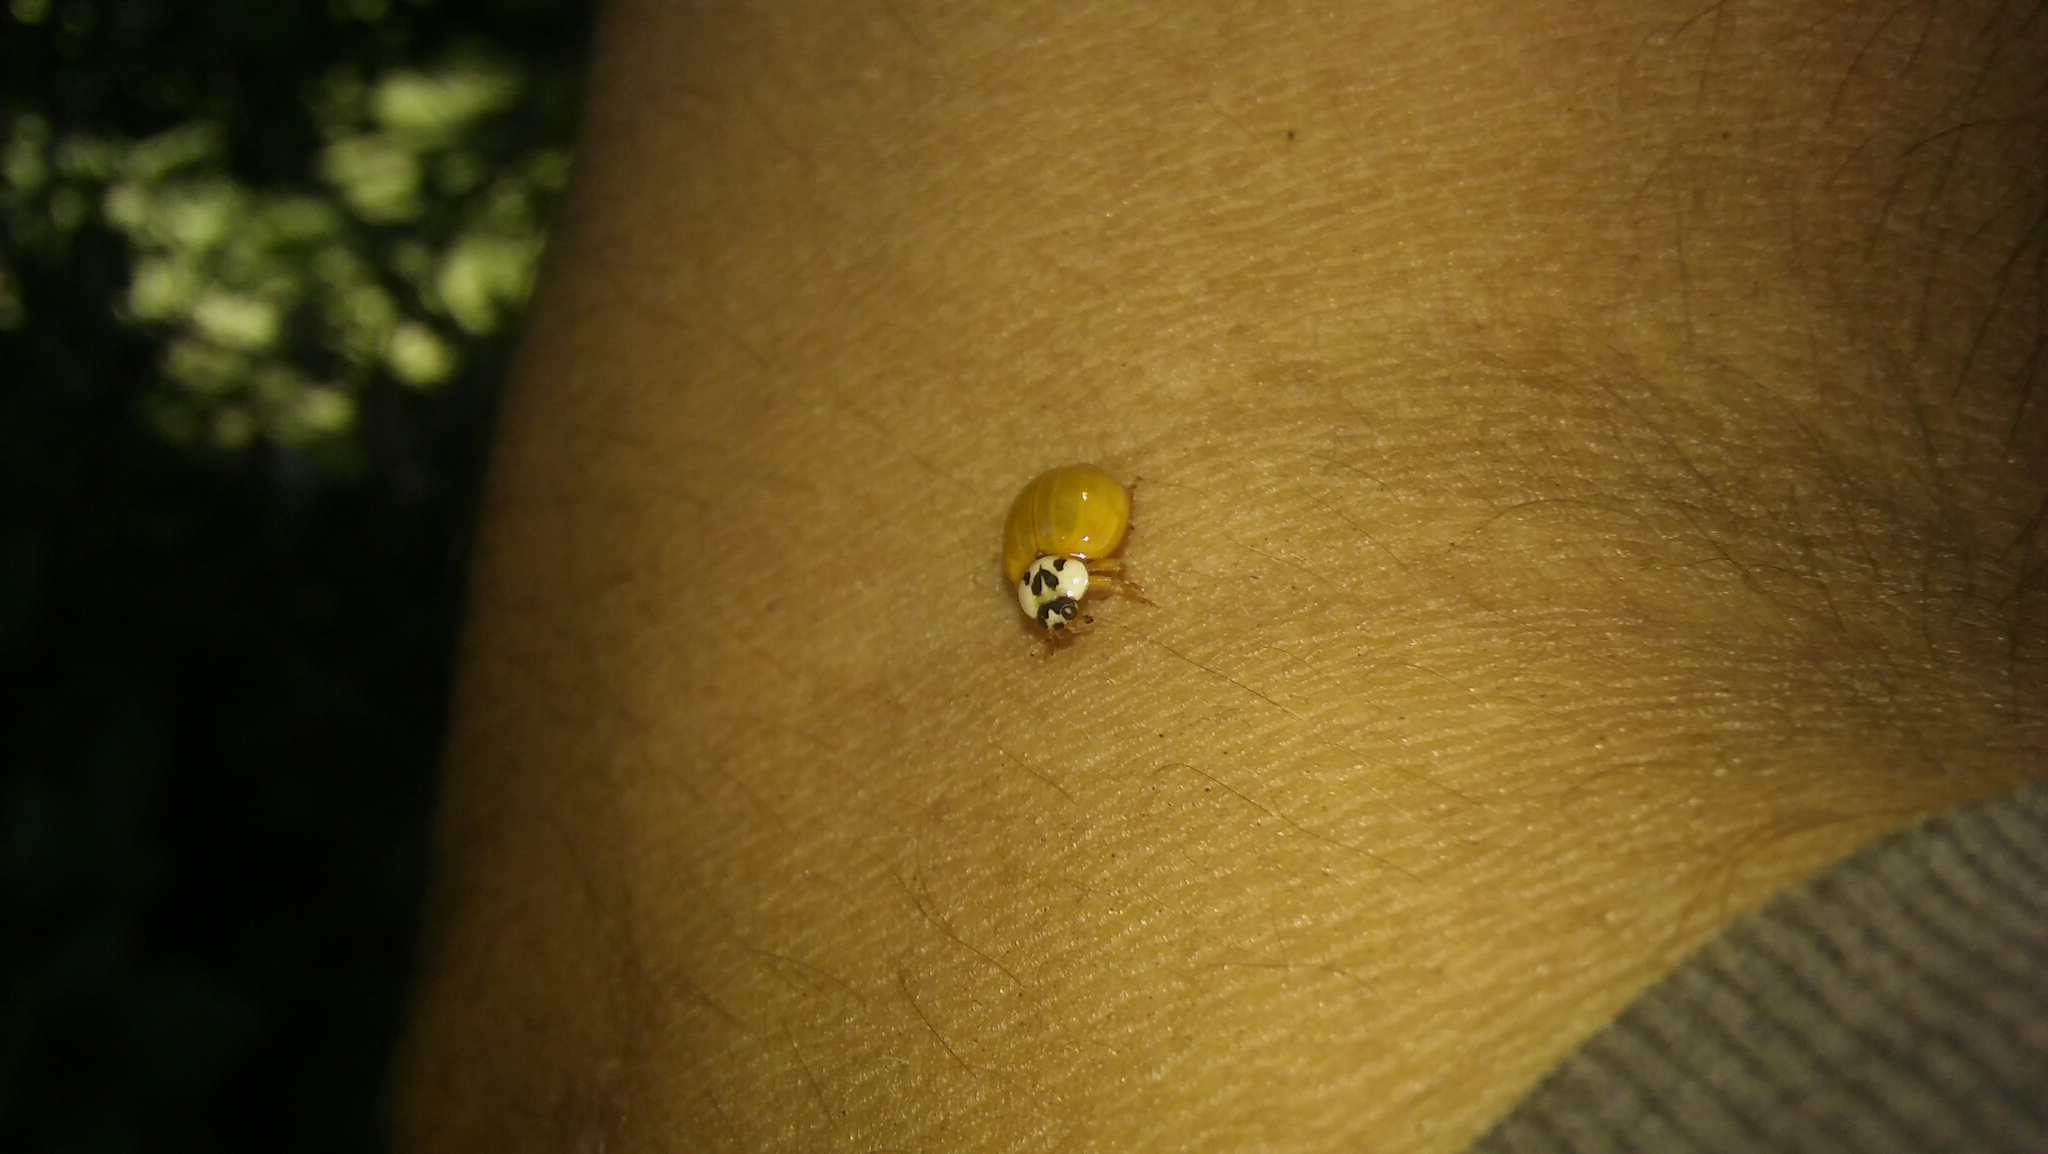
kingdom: Animalia
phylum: Arthropoda
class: Insecta
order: Coleoptera
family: Coccinellidae
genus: Harmonia
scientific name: Harmonia axyridis
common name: Harlequin ladybird
